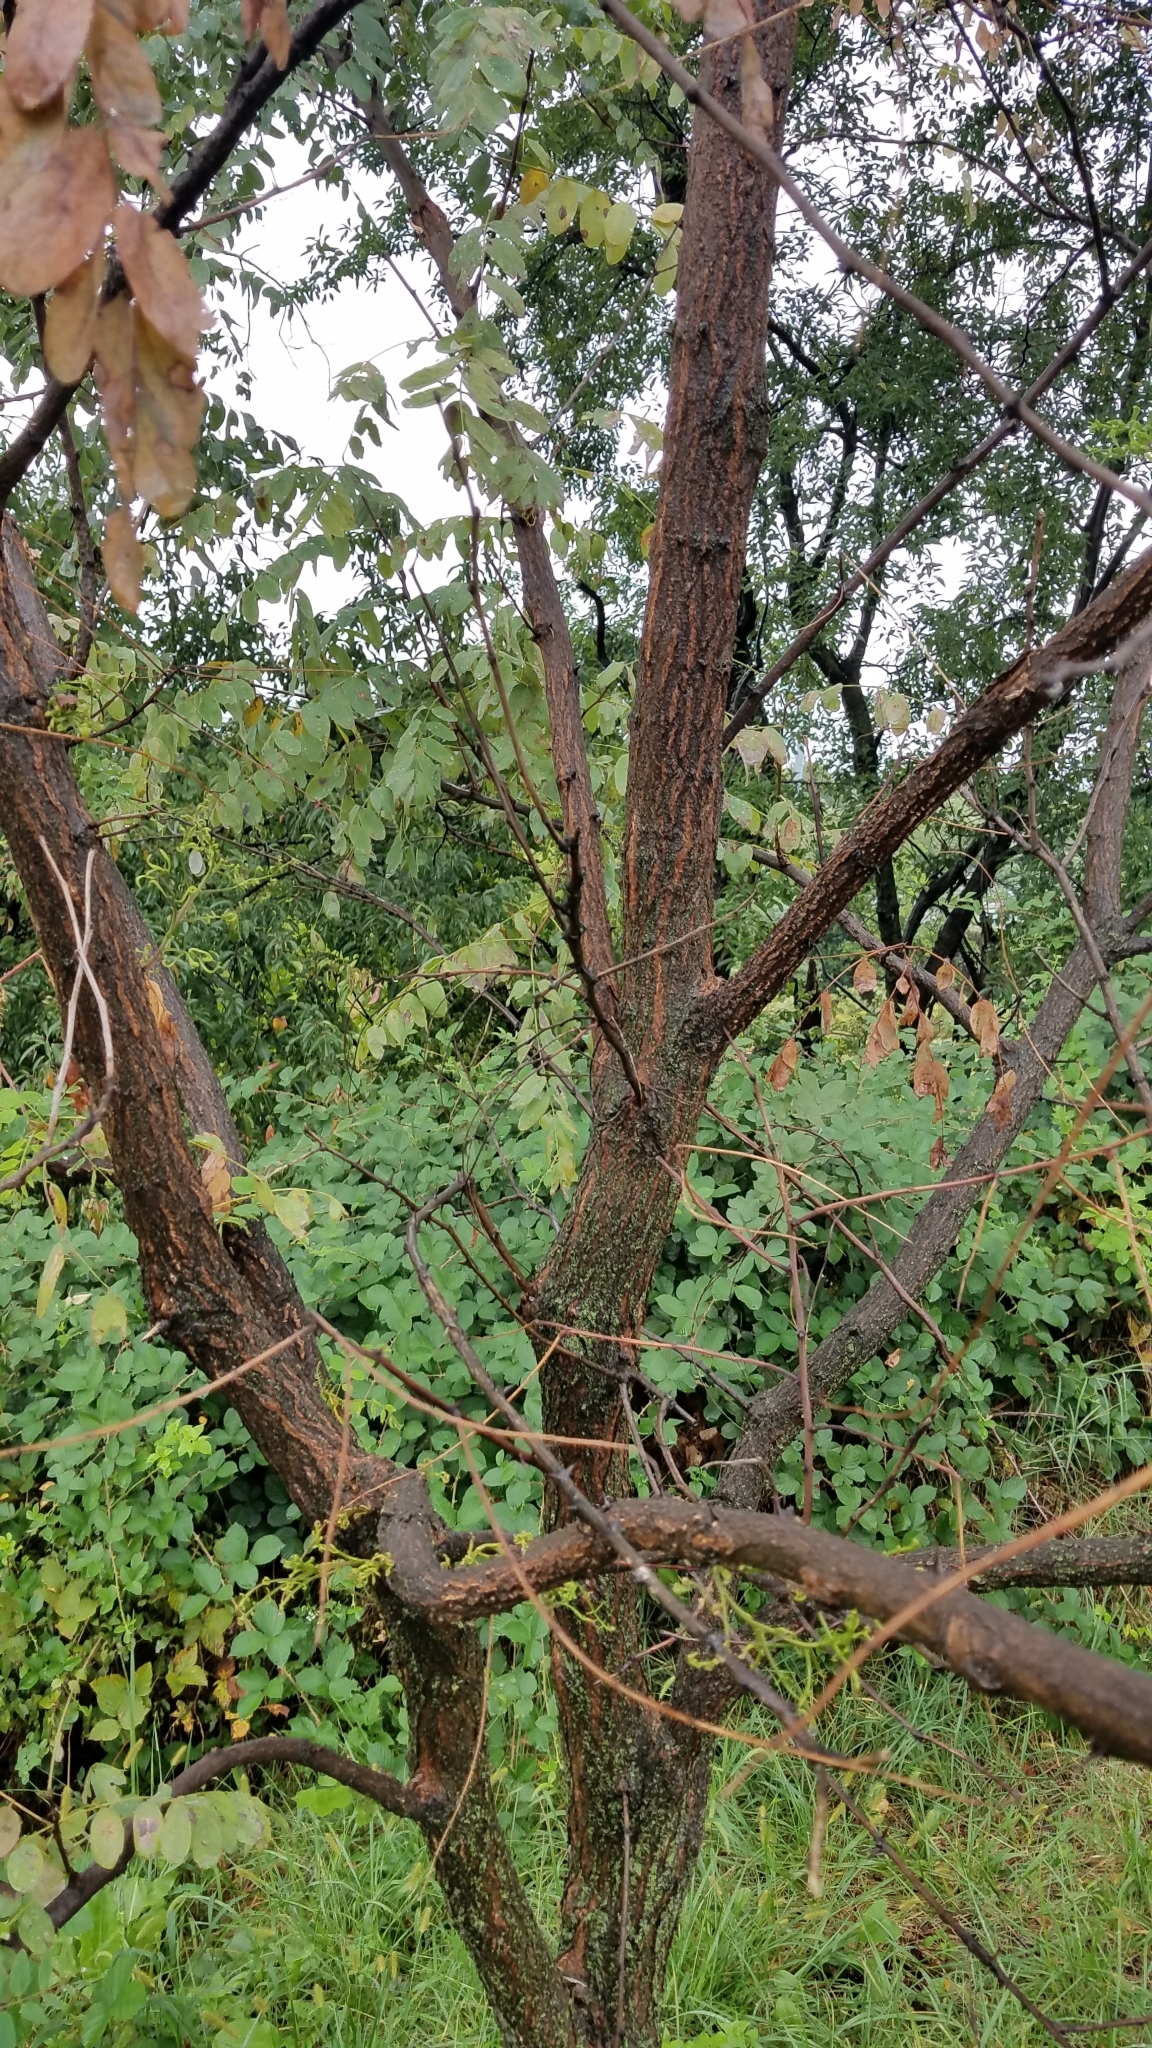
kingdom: Plantae
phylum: Tracheophyta
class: Magnoliopsida
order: Fabales
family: Fabaceae
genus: Robinia
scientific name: Robinia pseudoacacia
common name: Black locust
